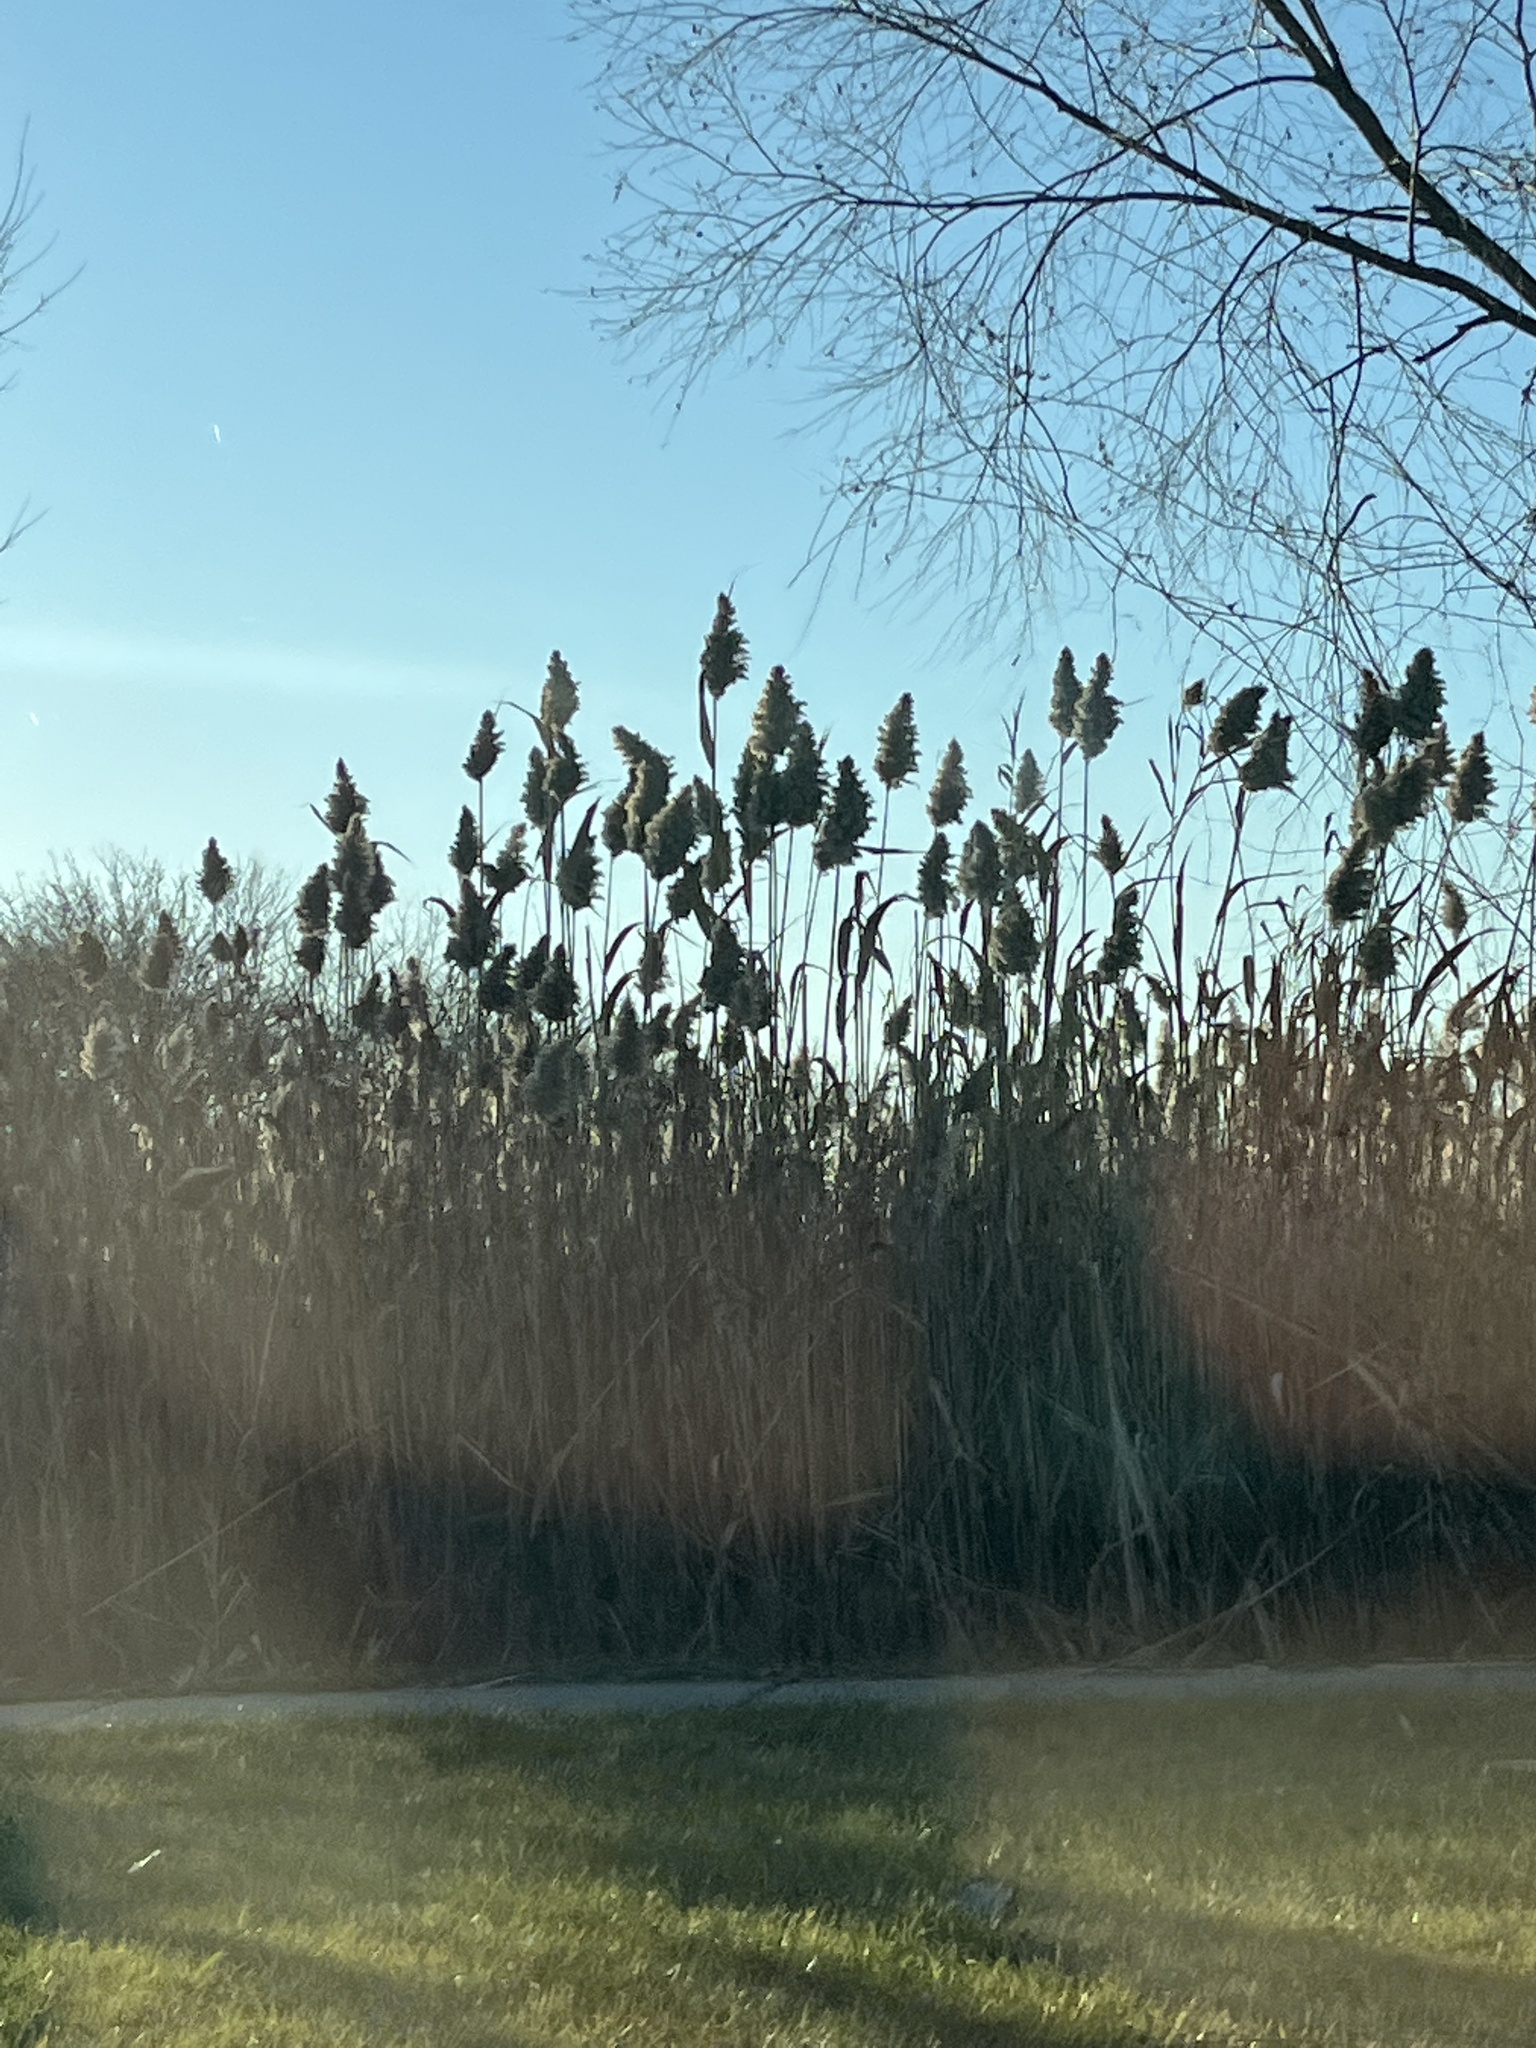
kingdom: Plantae
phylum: Tracheophyta
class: Liliopsida
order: Poales
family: Poaceae
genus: Phragmites
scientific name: Phragmites australis
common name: Common reed
